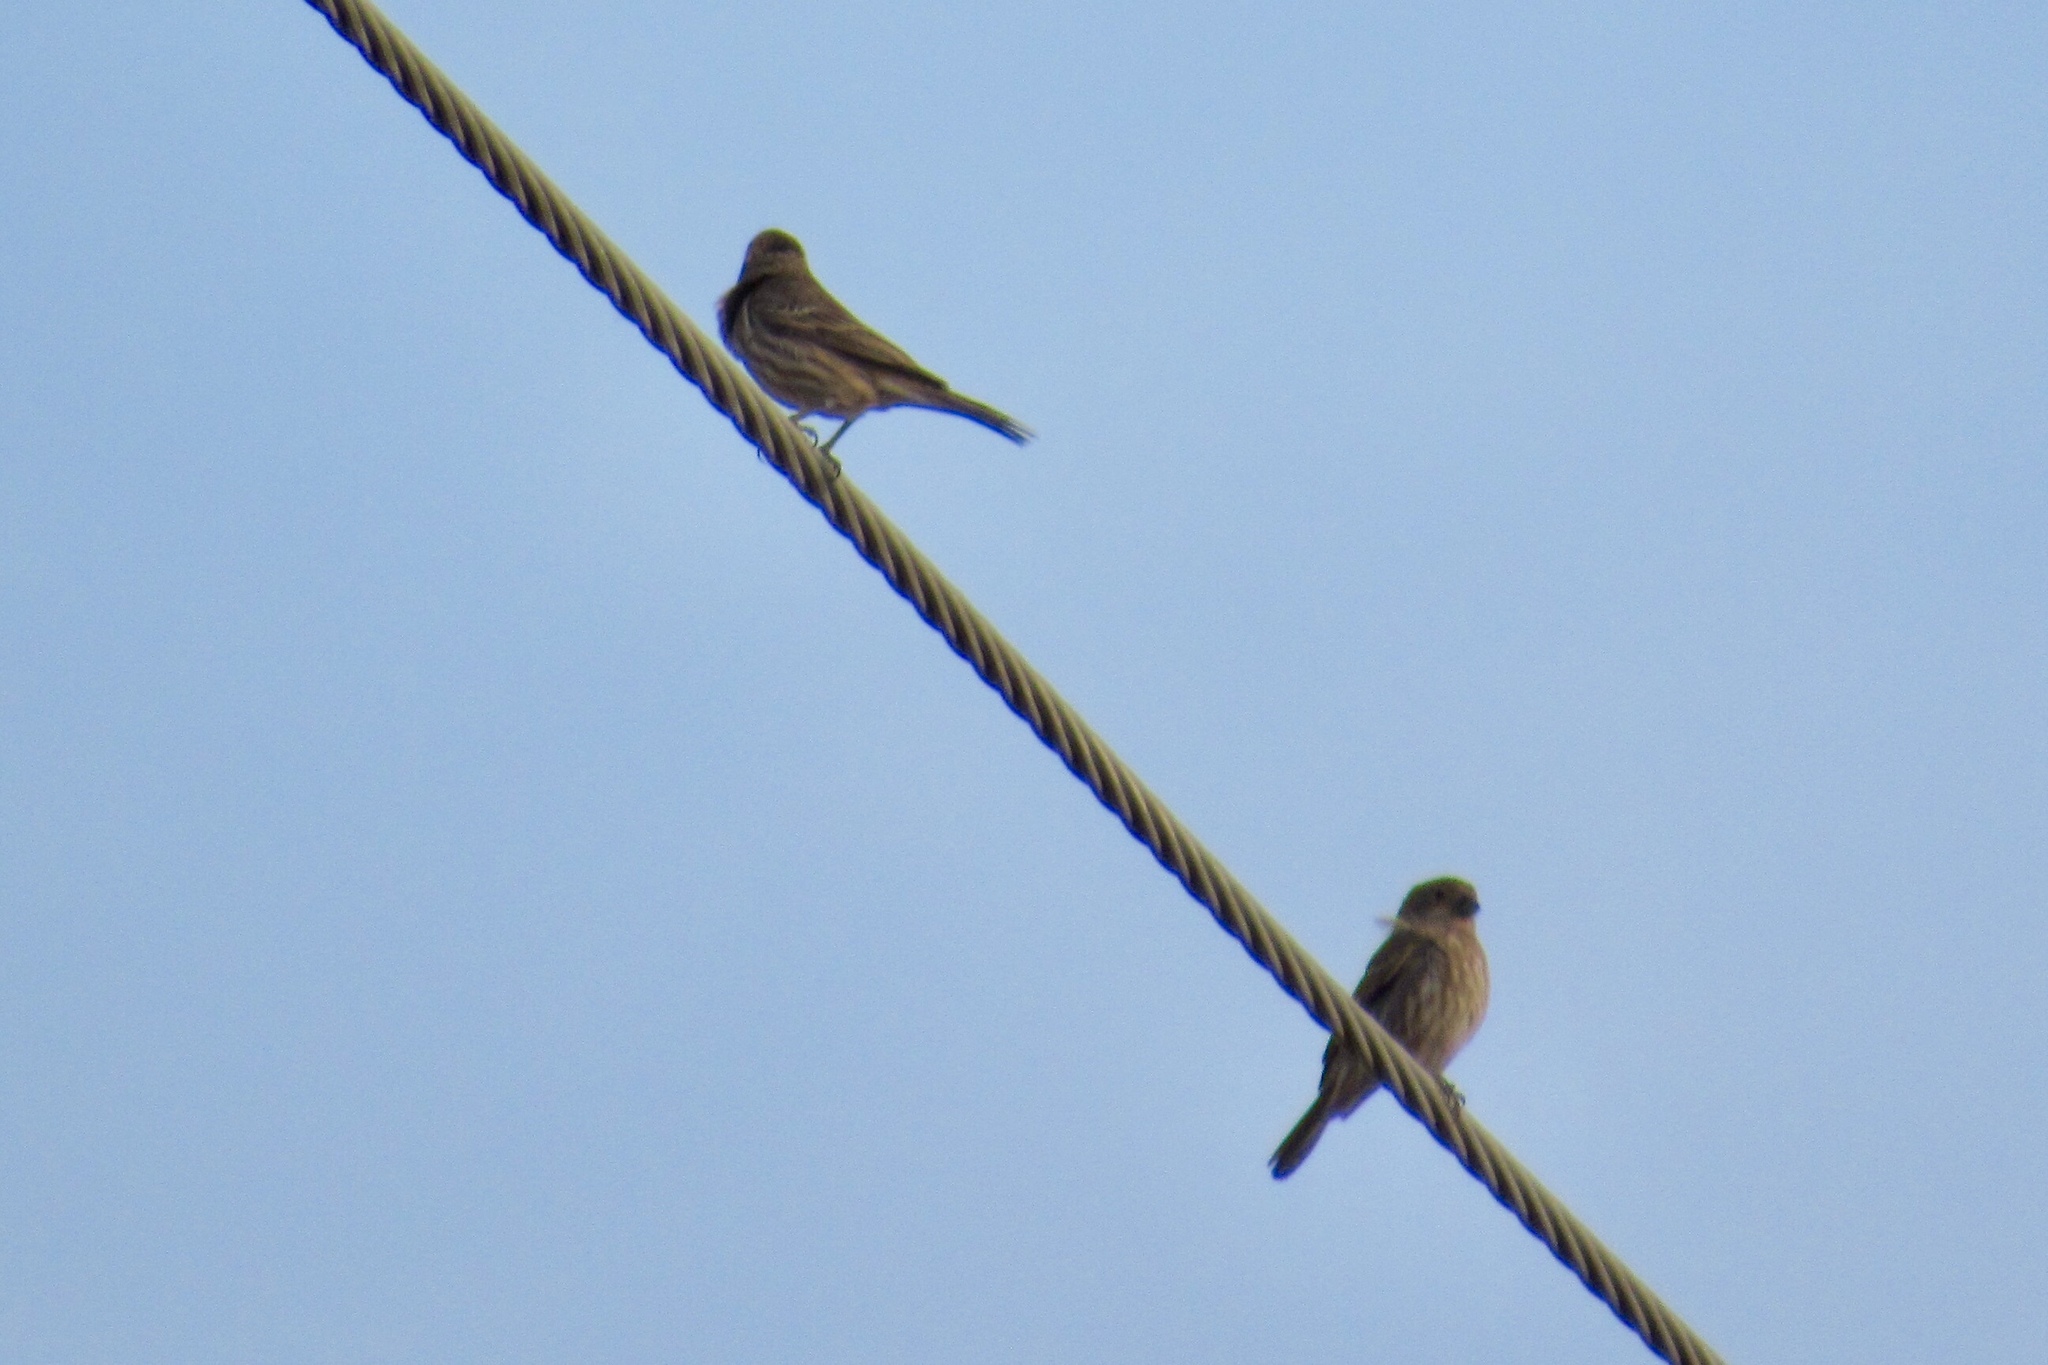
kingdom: Animalia
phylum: Chordata
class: Aves
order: Passeriformes
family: Fringillidae
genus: Haemorhous
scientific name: Haemorhous mexicanus
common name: House finch
